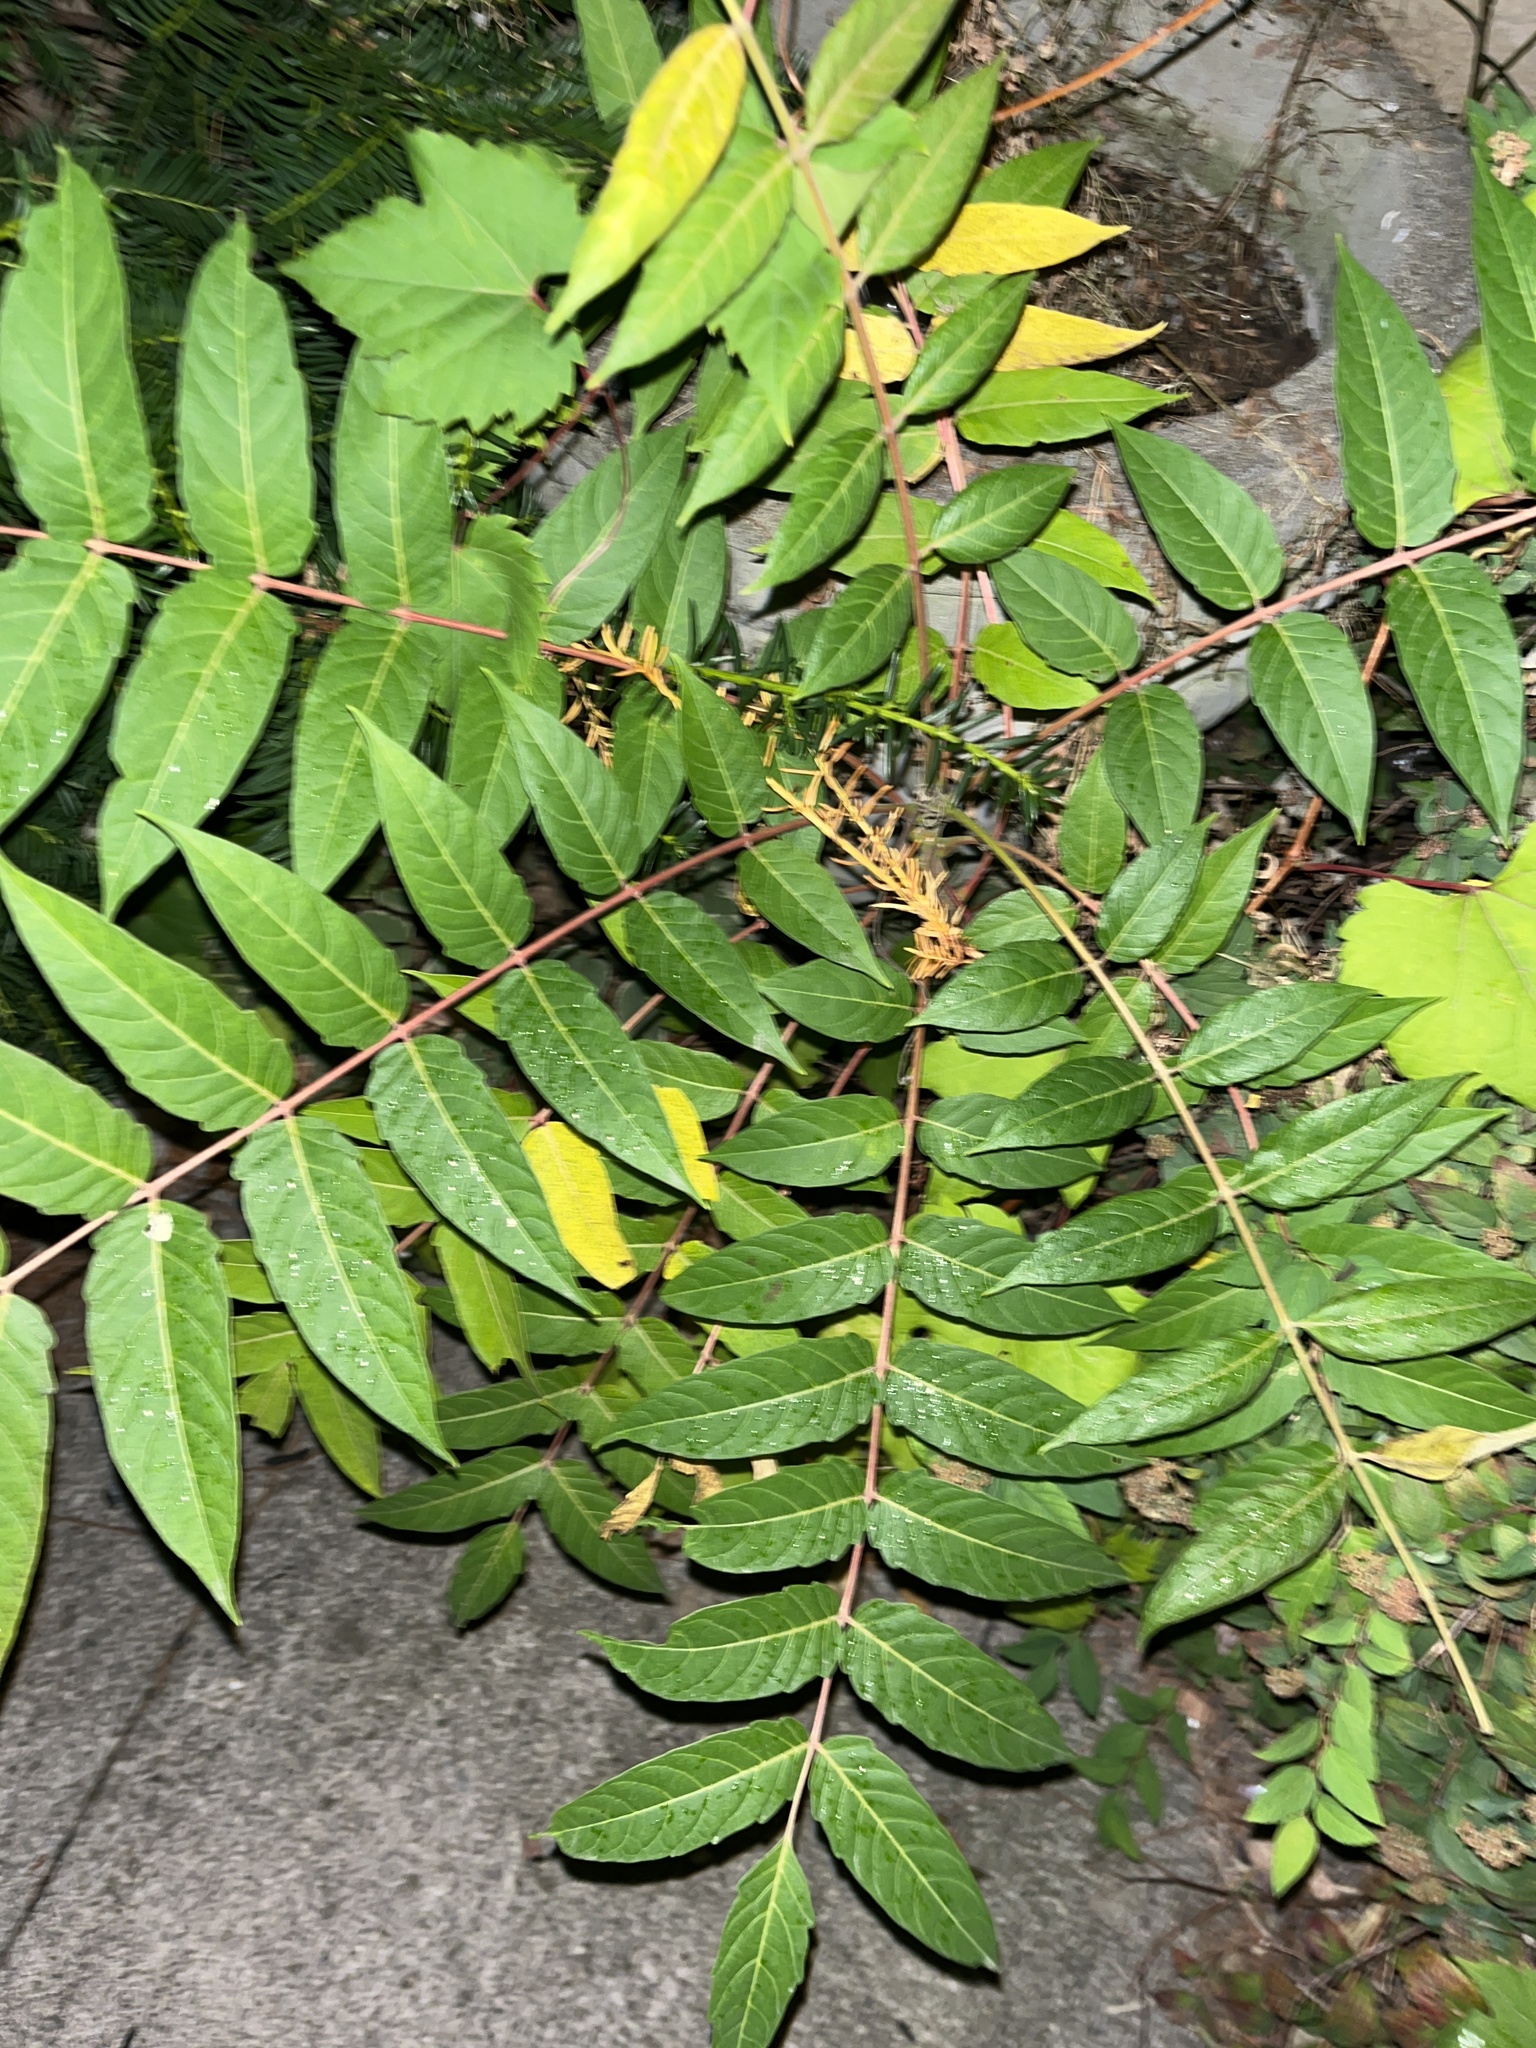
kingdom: Plantae
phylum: Tracheophyta
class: Magnoliopsida
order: Sapindales
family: Simaroubaceae
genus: Ailanthus
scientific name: Ailanthus altissima
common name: Tree-of-heaven
